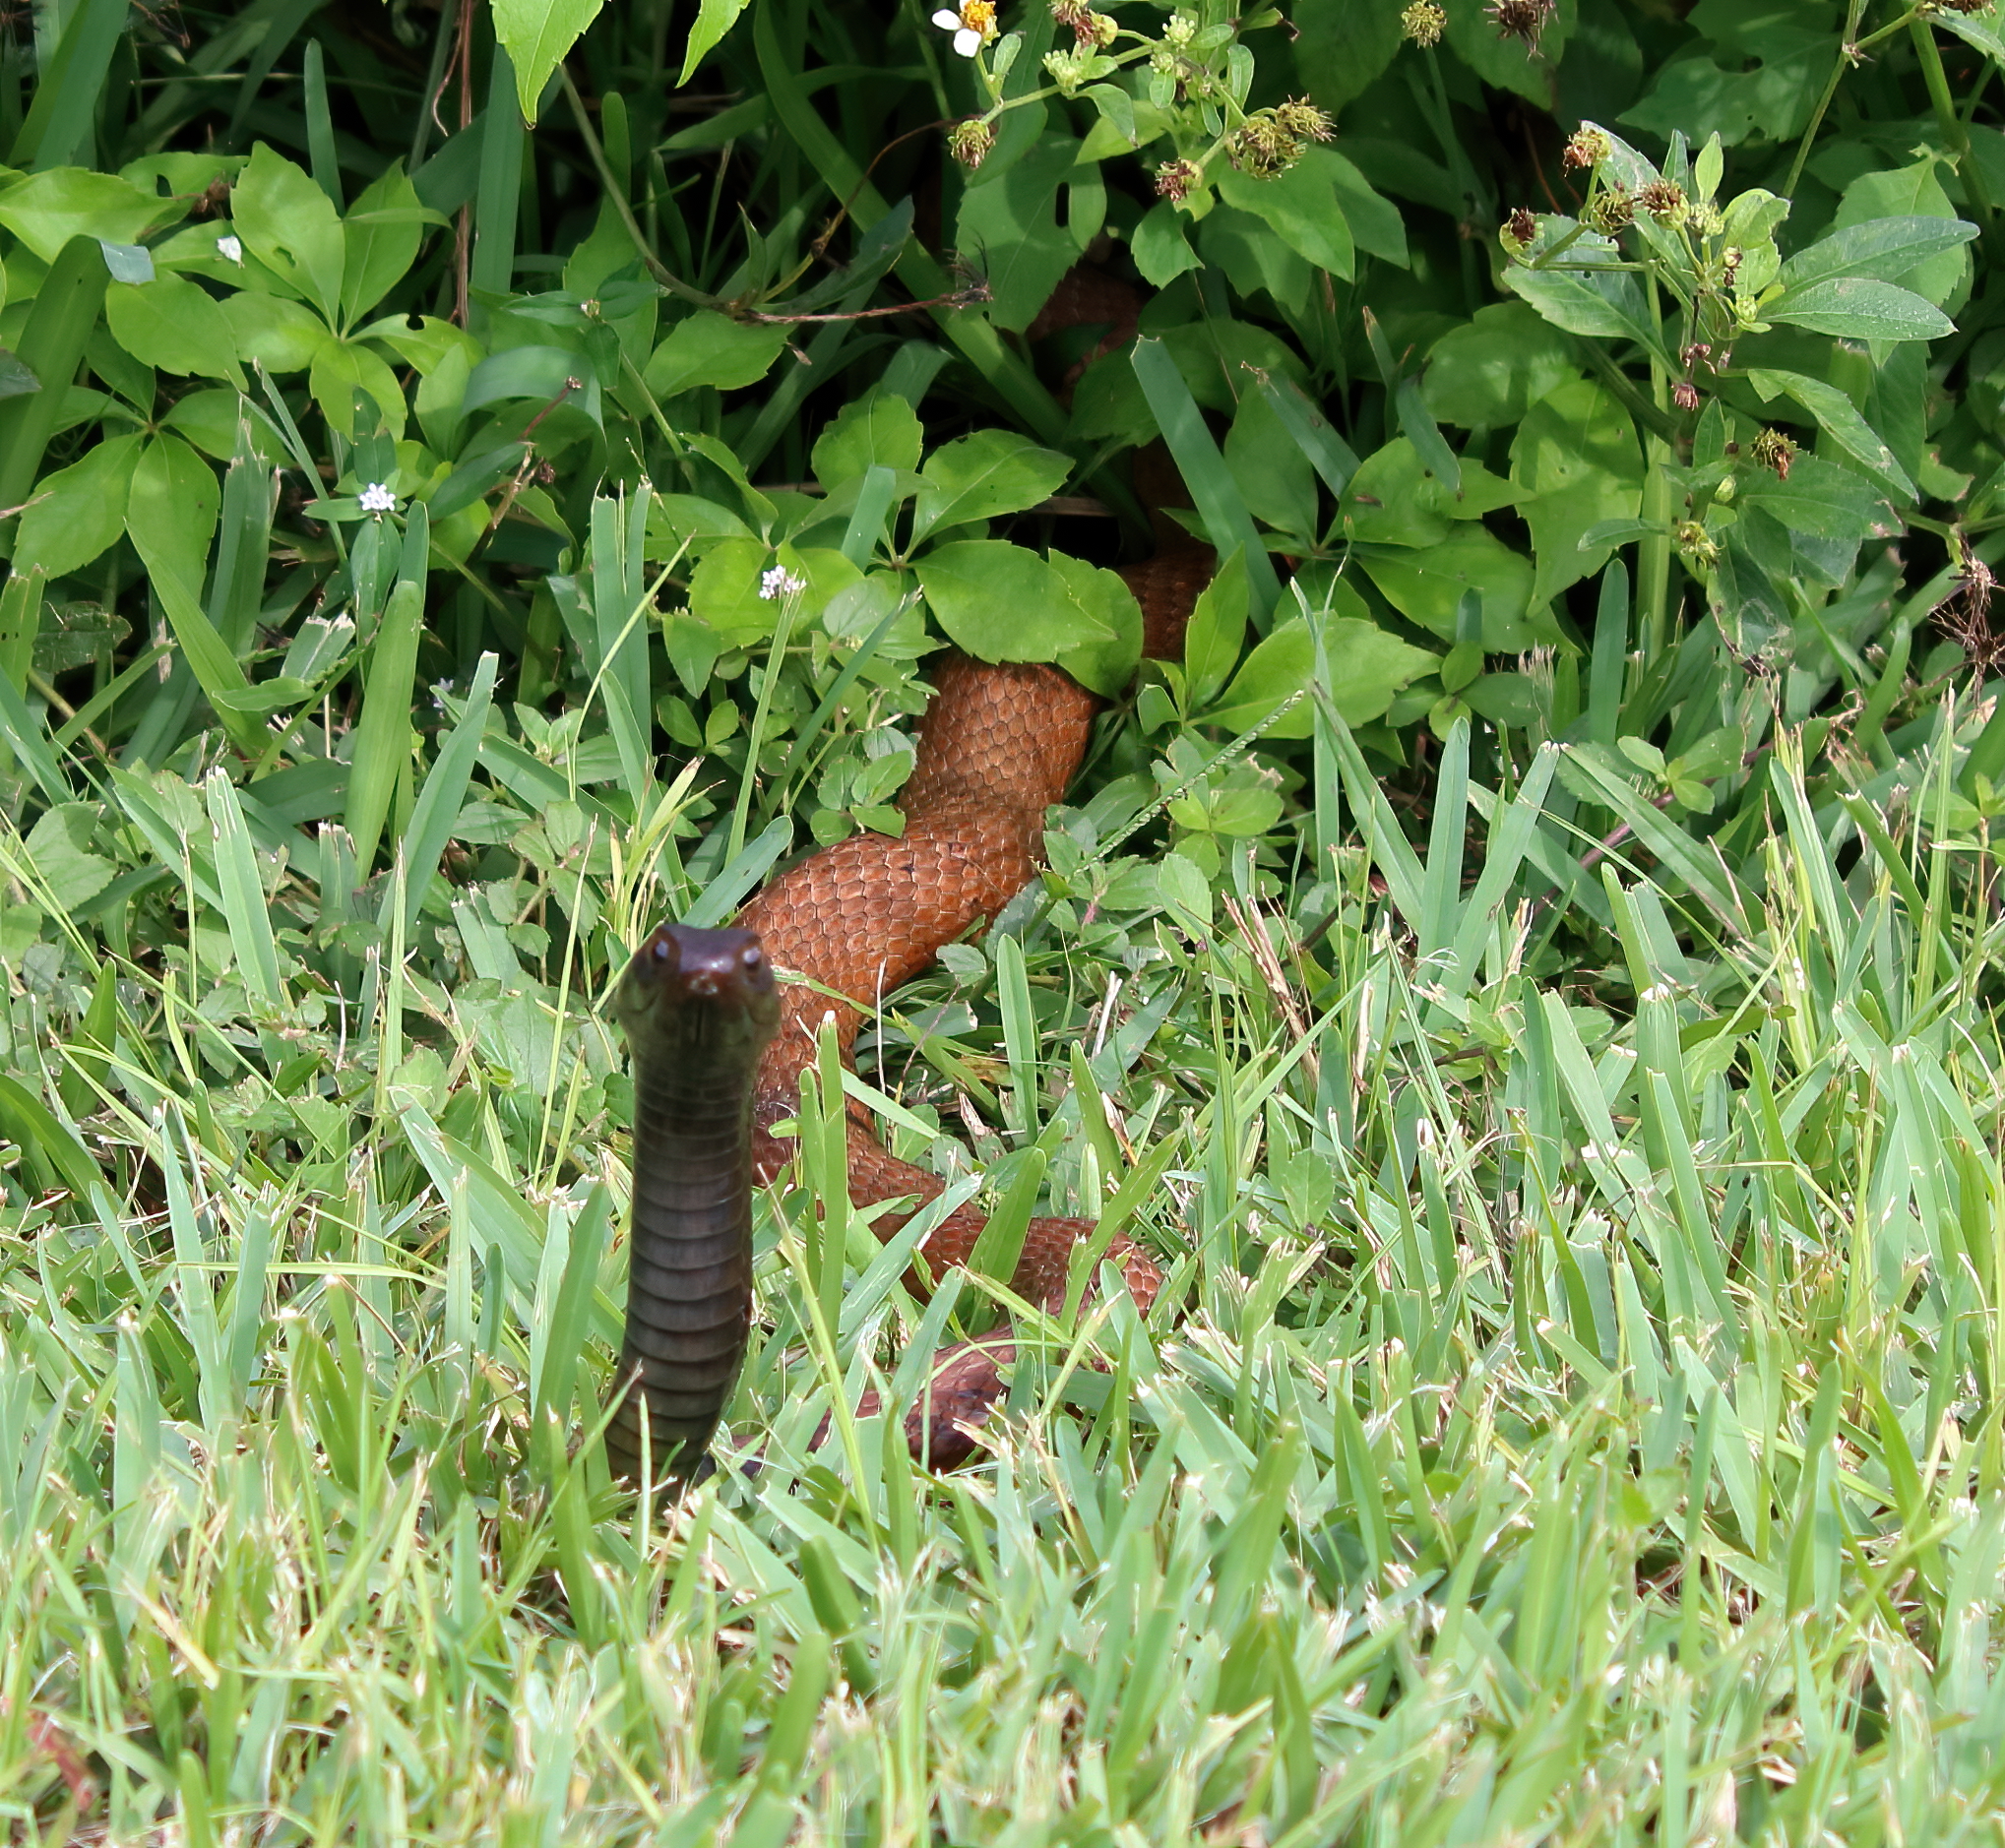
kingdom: Animalia
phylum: Chordata
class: Squamata
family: Colubridae
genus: Masticophis
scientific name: Masticophis flagellum
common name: Coachwhip
